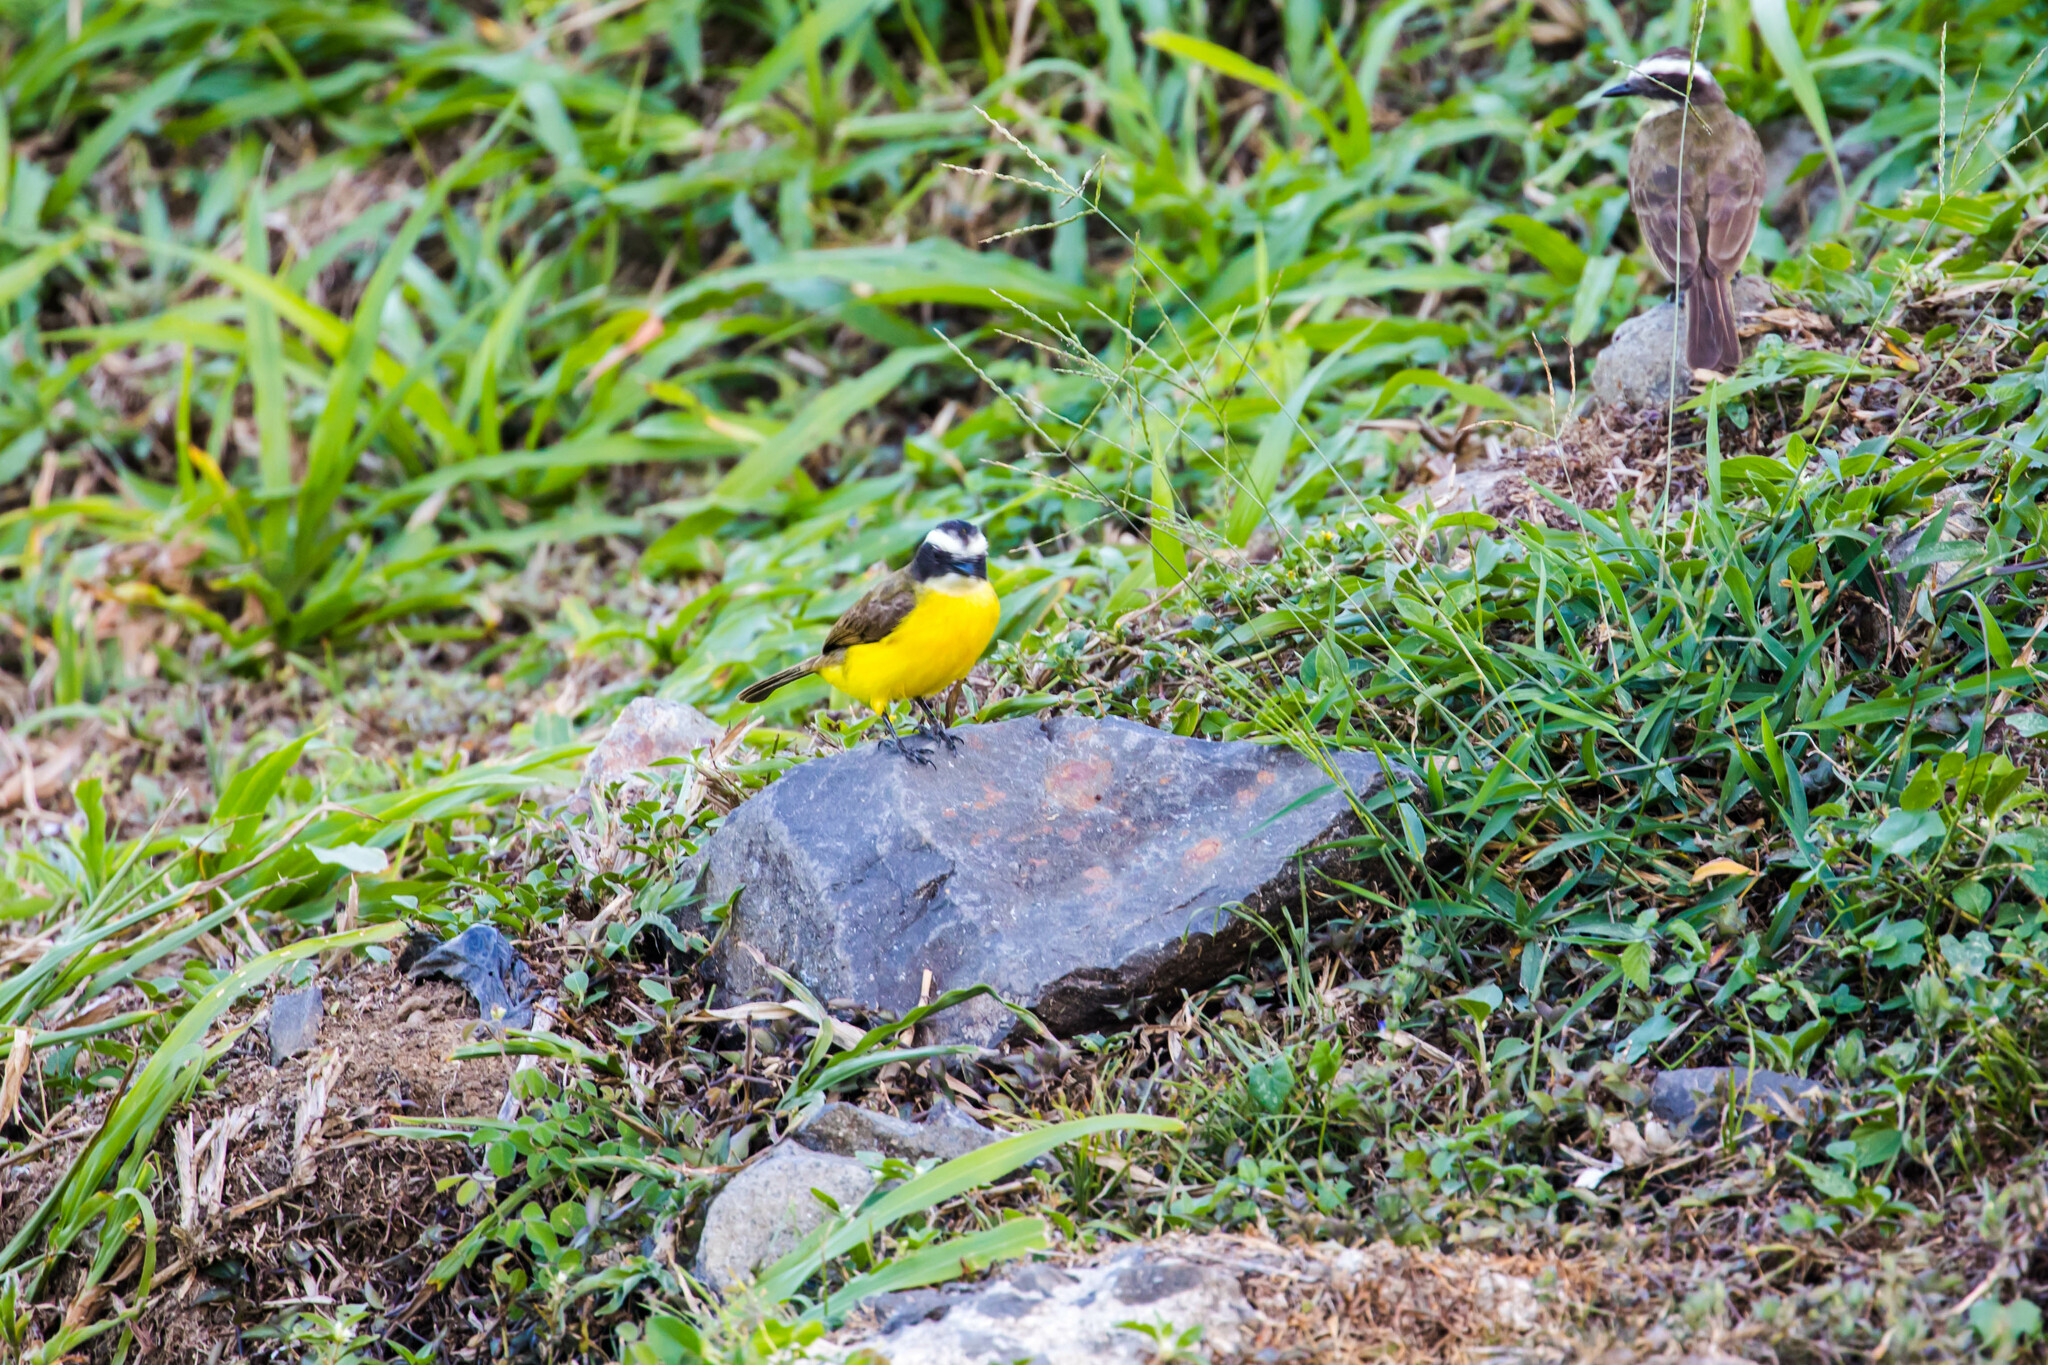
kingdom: Animalia
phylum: Chordata
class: Aves
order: Passeriformes
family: Tyrannidae
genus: Myiozetetes
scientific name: Myiozetetes cayanensis
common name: Rusty-margined flycatcher
